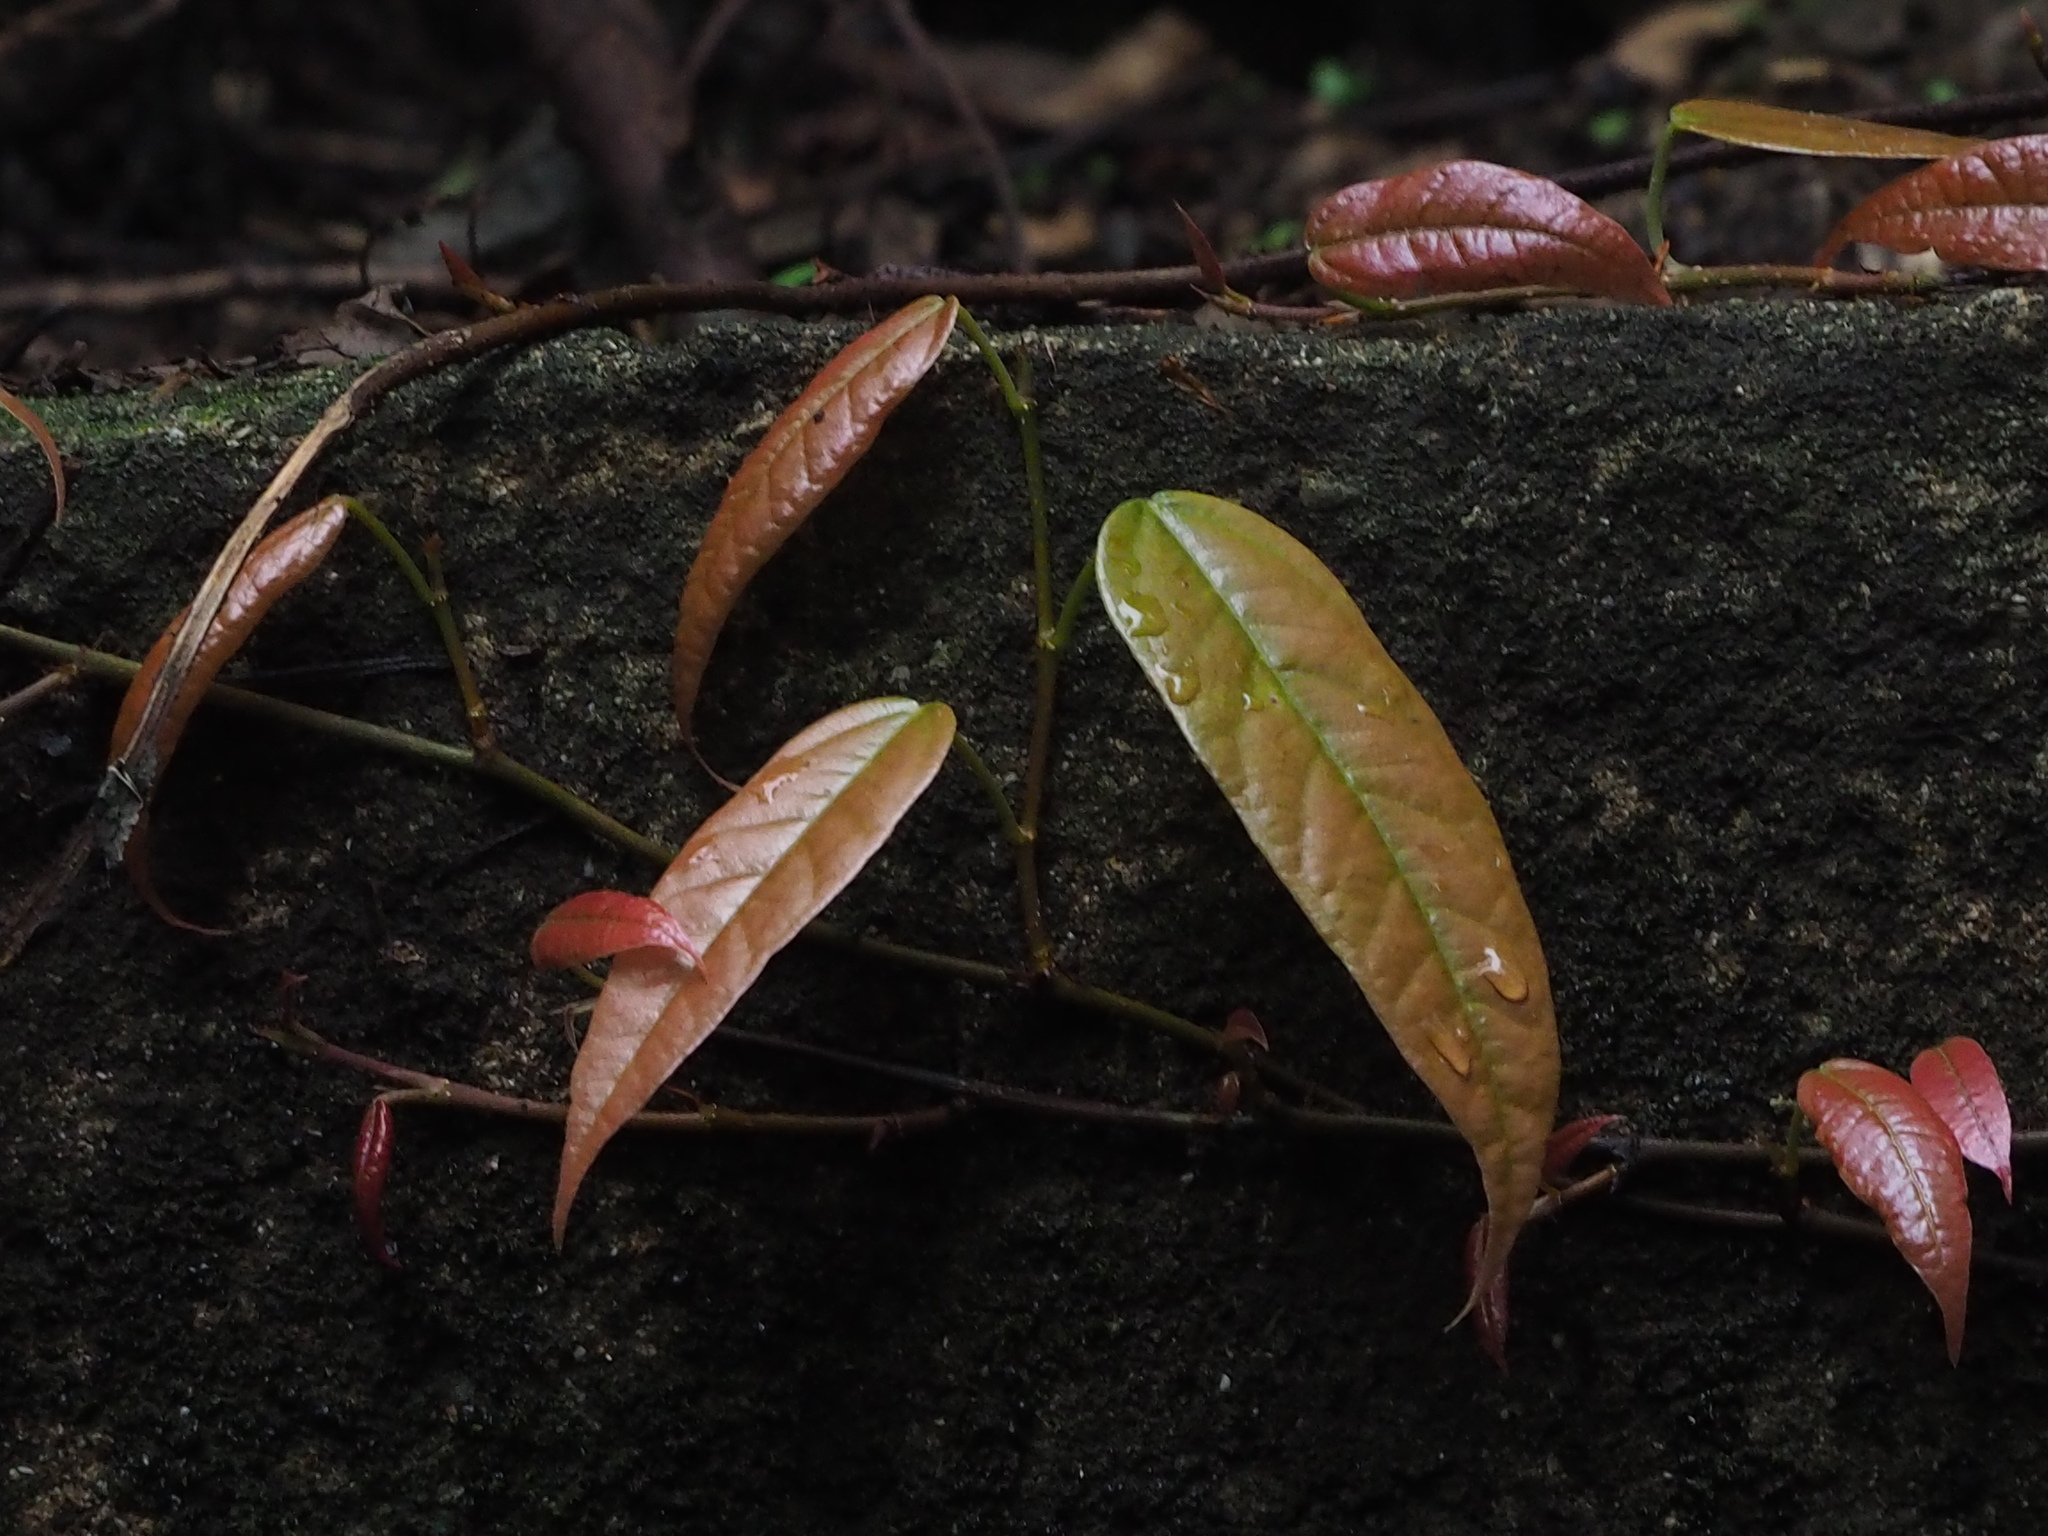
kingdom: Plantae
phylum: Tracheophyta
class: Magnoliopsida
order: Rosales
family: Moraceae
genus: Ficus
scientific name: Ficus sarmentosa
